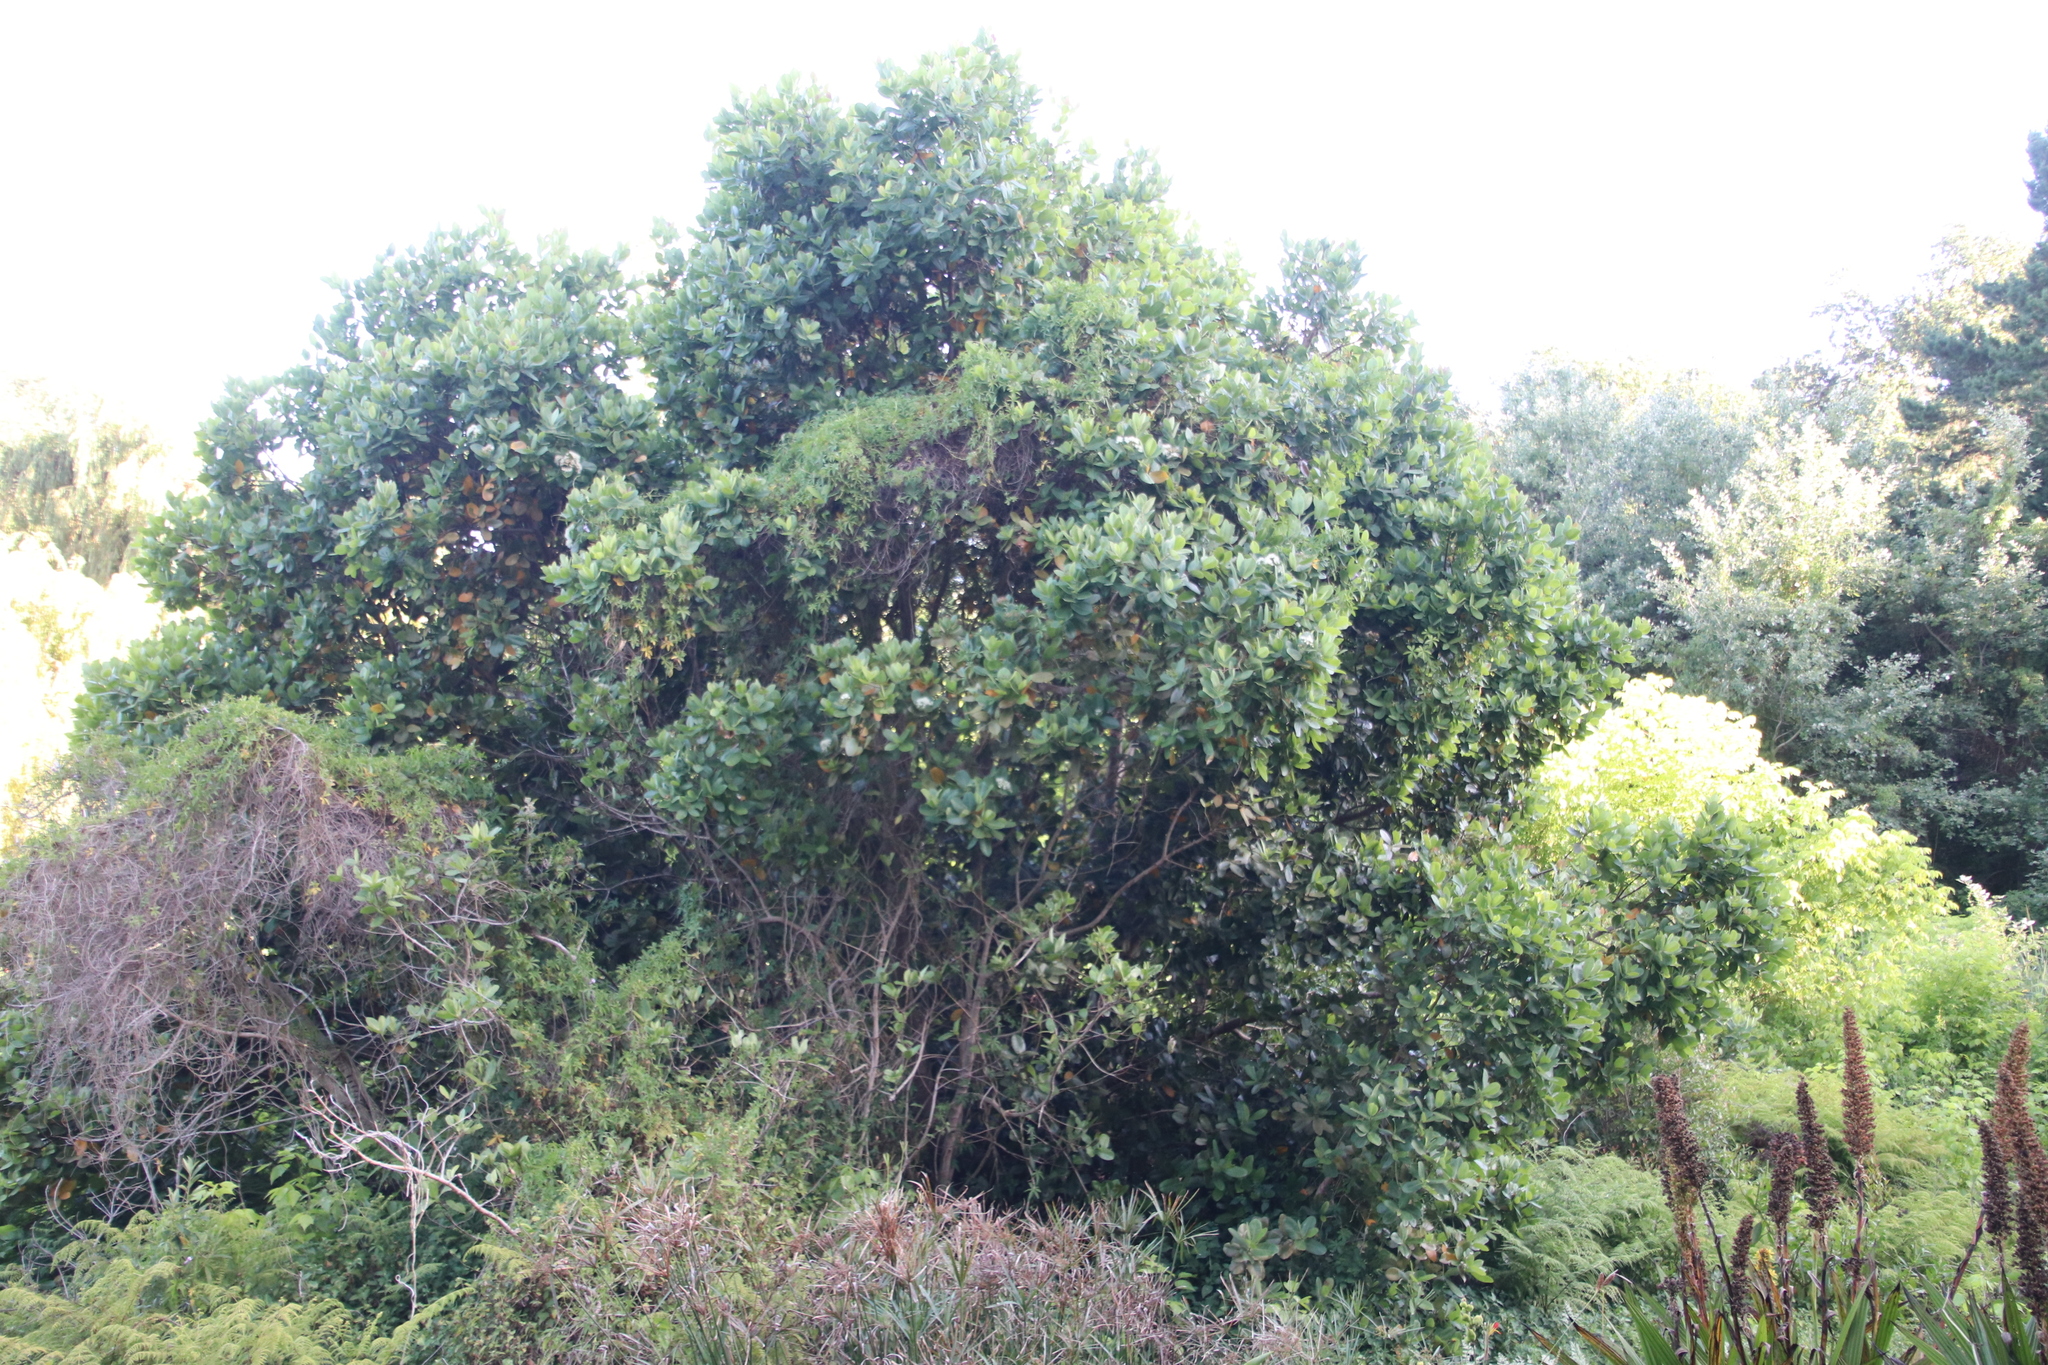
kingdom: Plantae
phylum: Tracheophyta
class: Magnoliopsida
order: Myrtales
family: Myrtaceae
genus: Syzygium
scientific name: Syzygium cordatum
